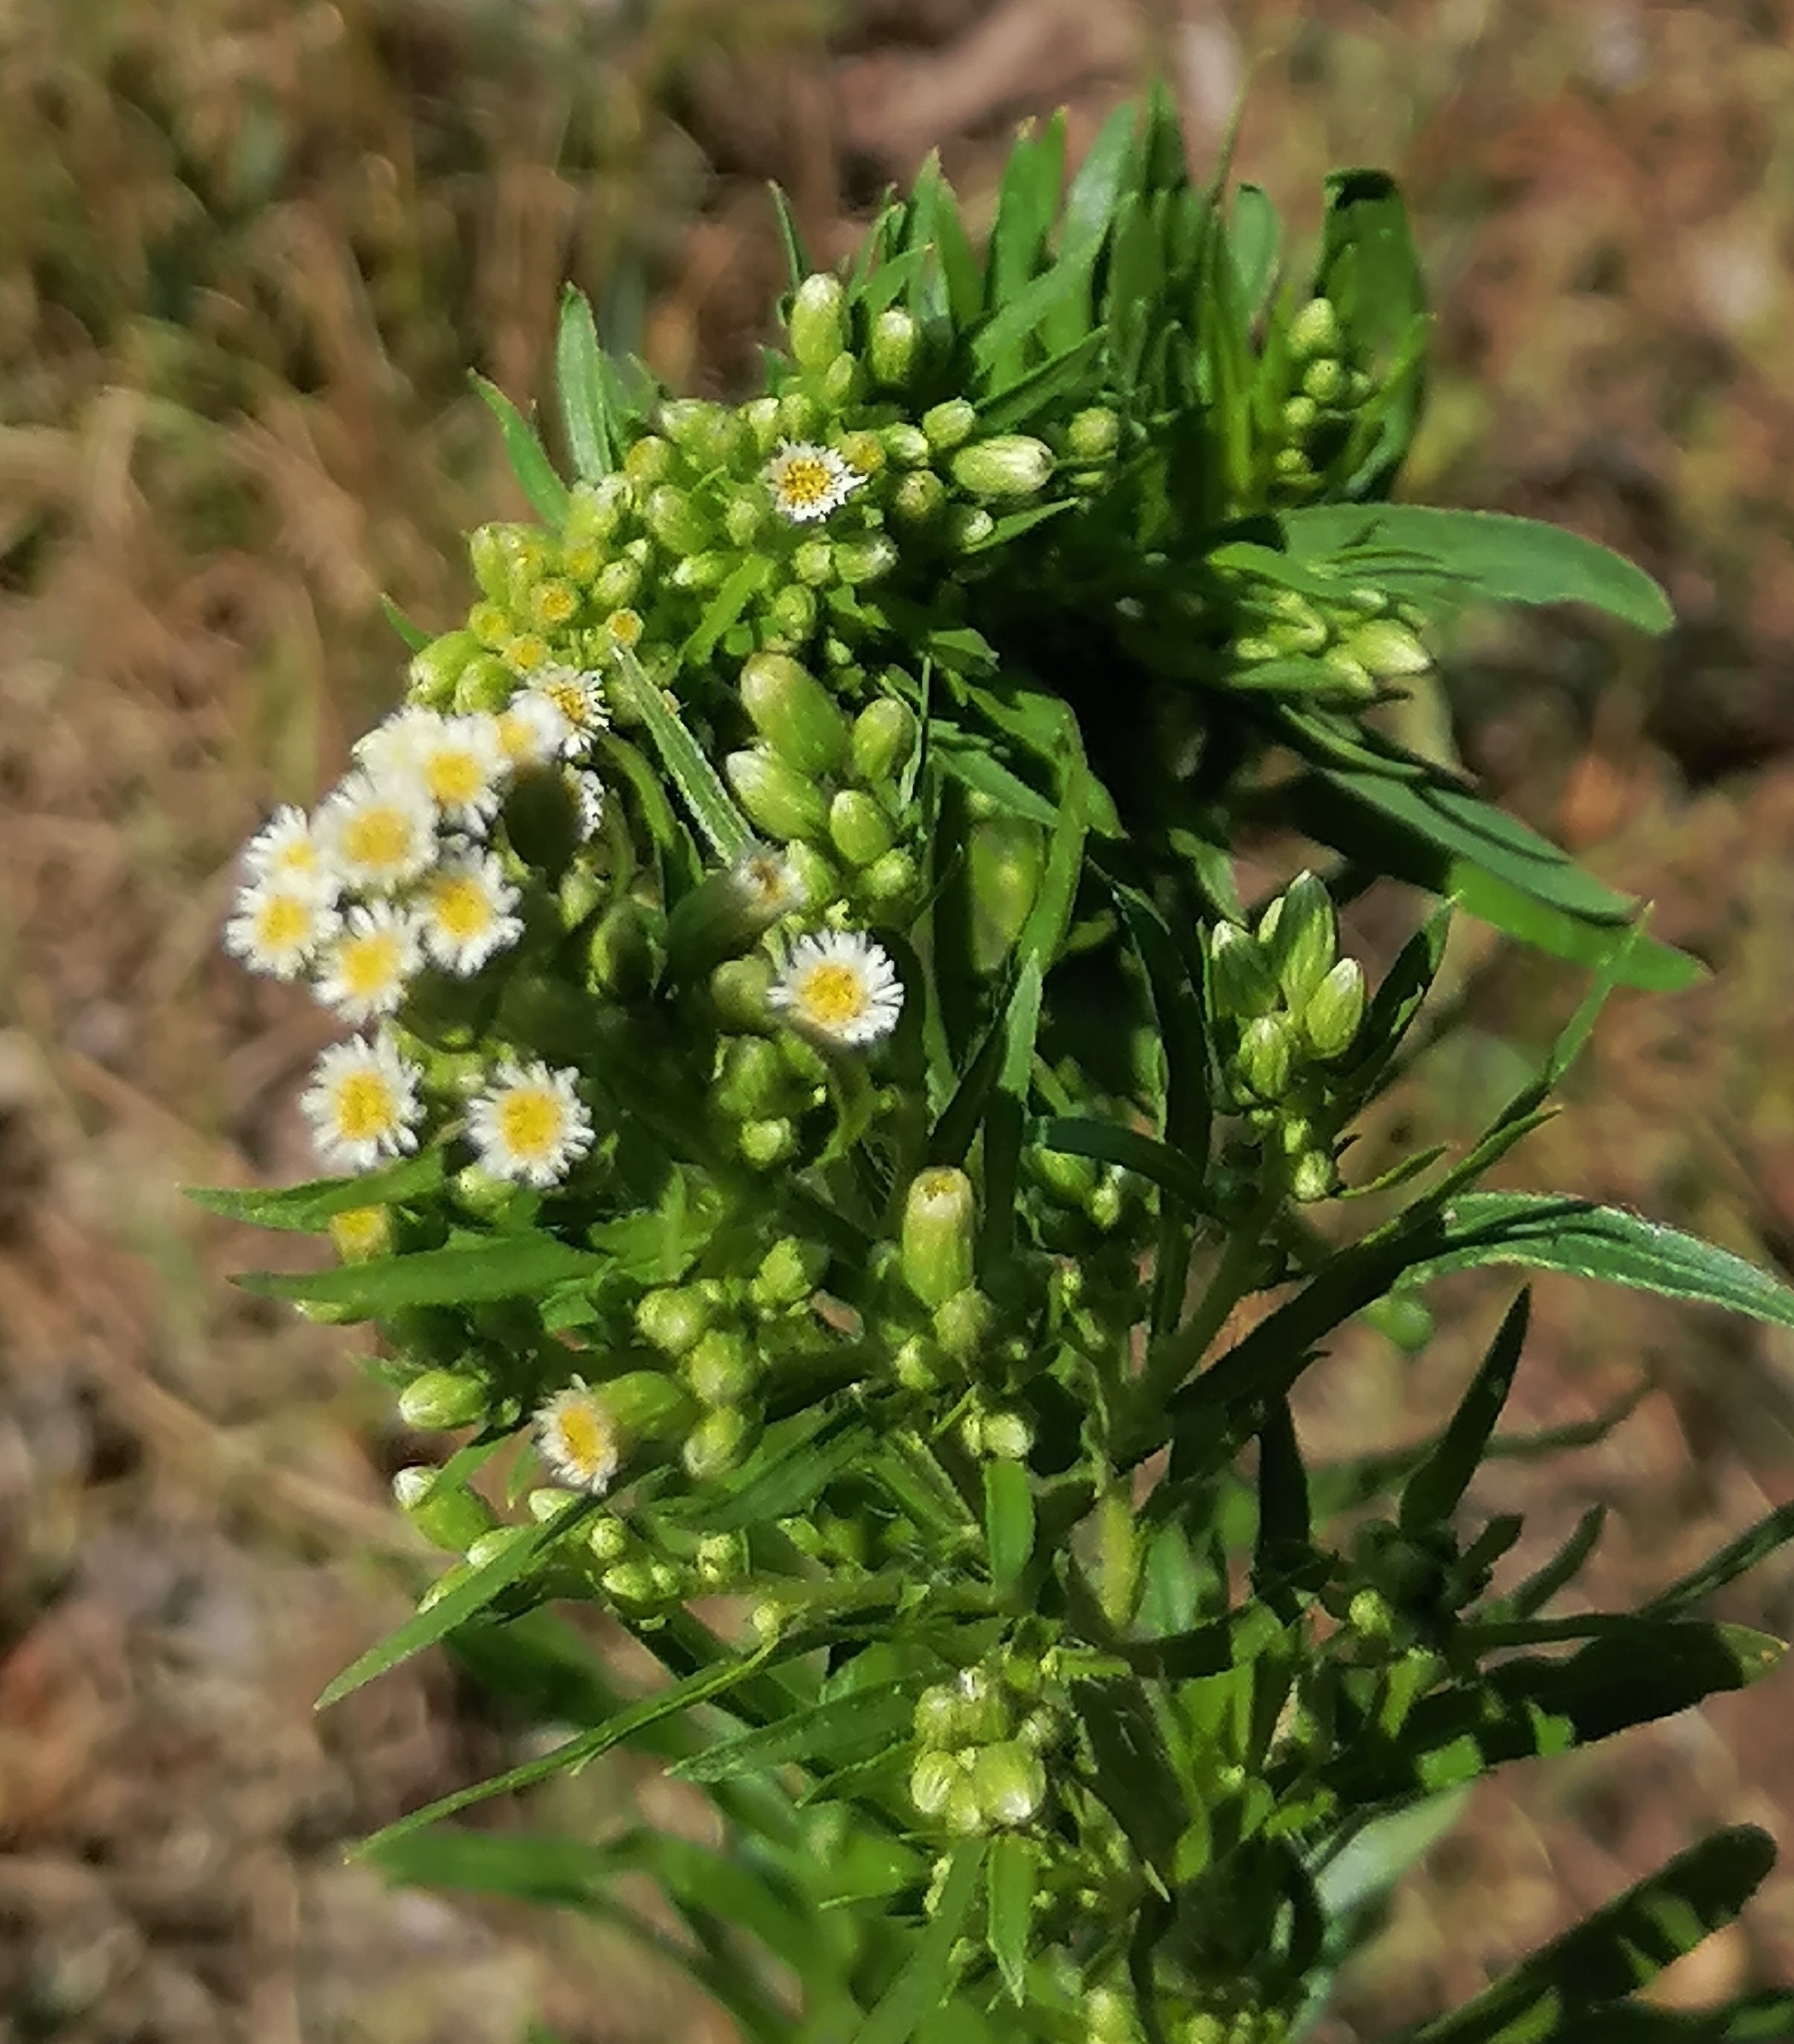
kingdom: Plantae
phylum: Tracheophyta
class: Magnoliopsida
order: Asterales
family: Asteraceae
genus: Erigeron
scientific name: Erigeron annuus
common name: Tall fleabane
